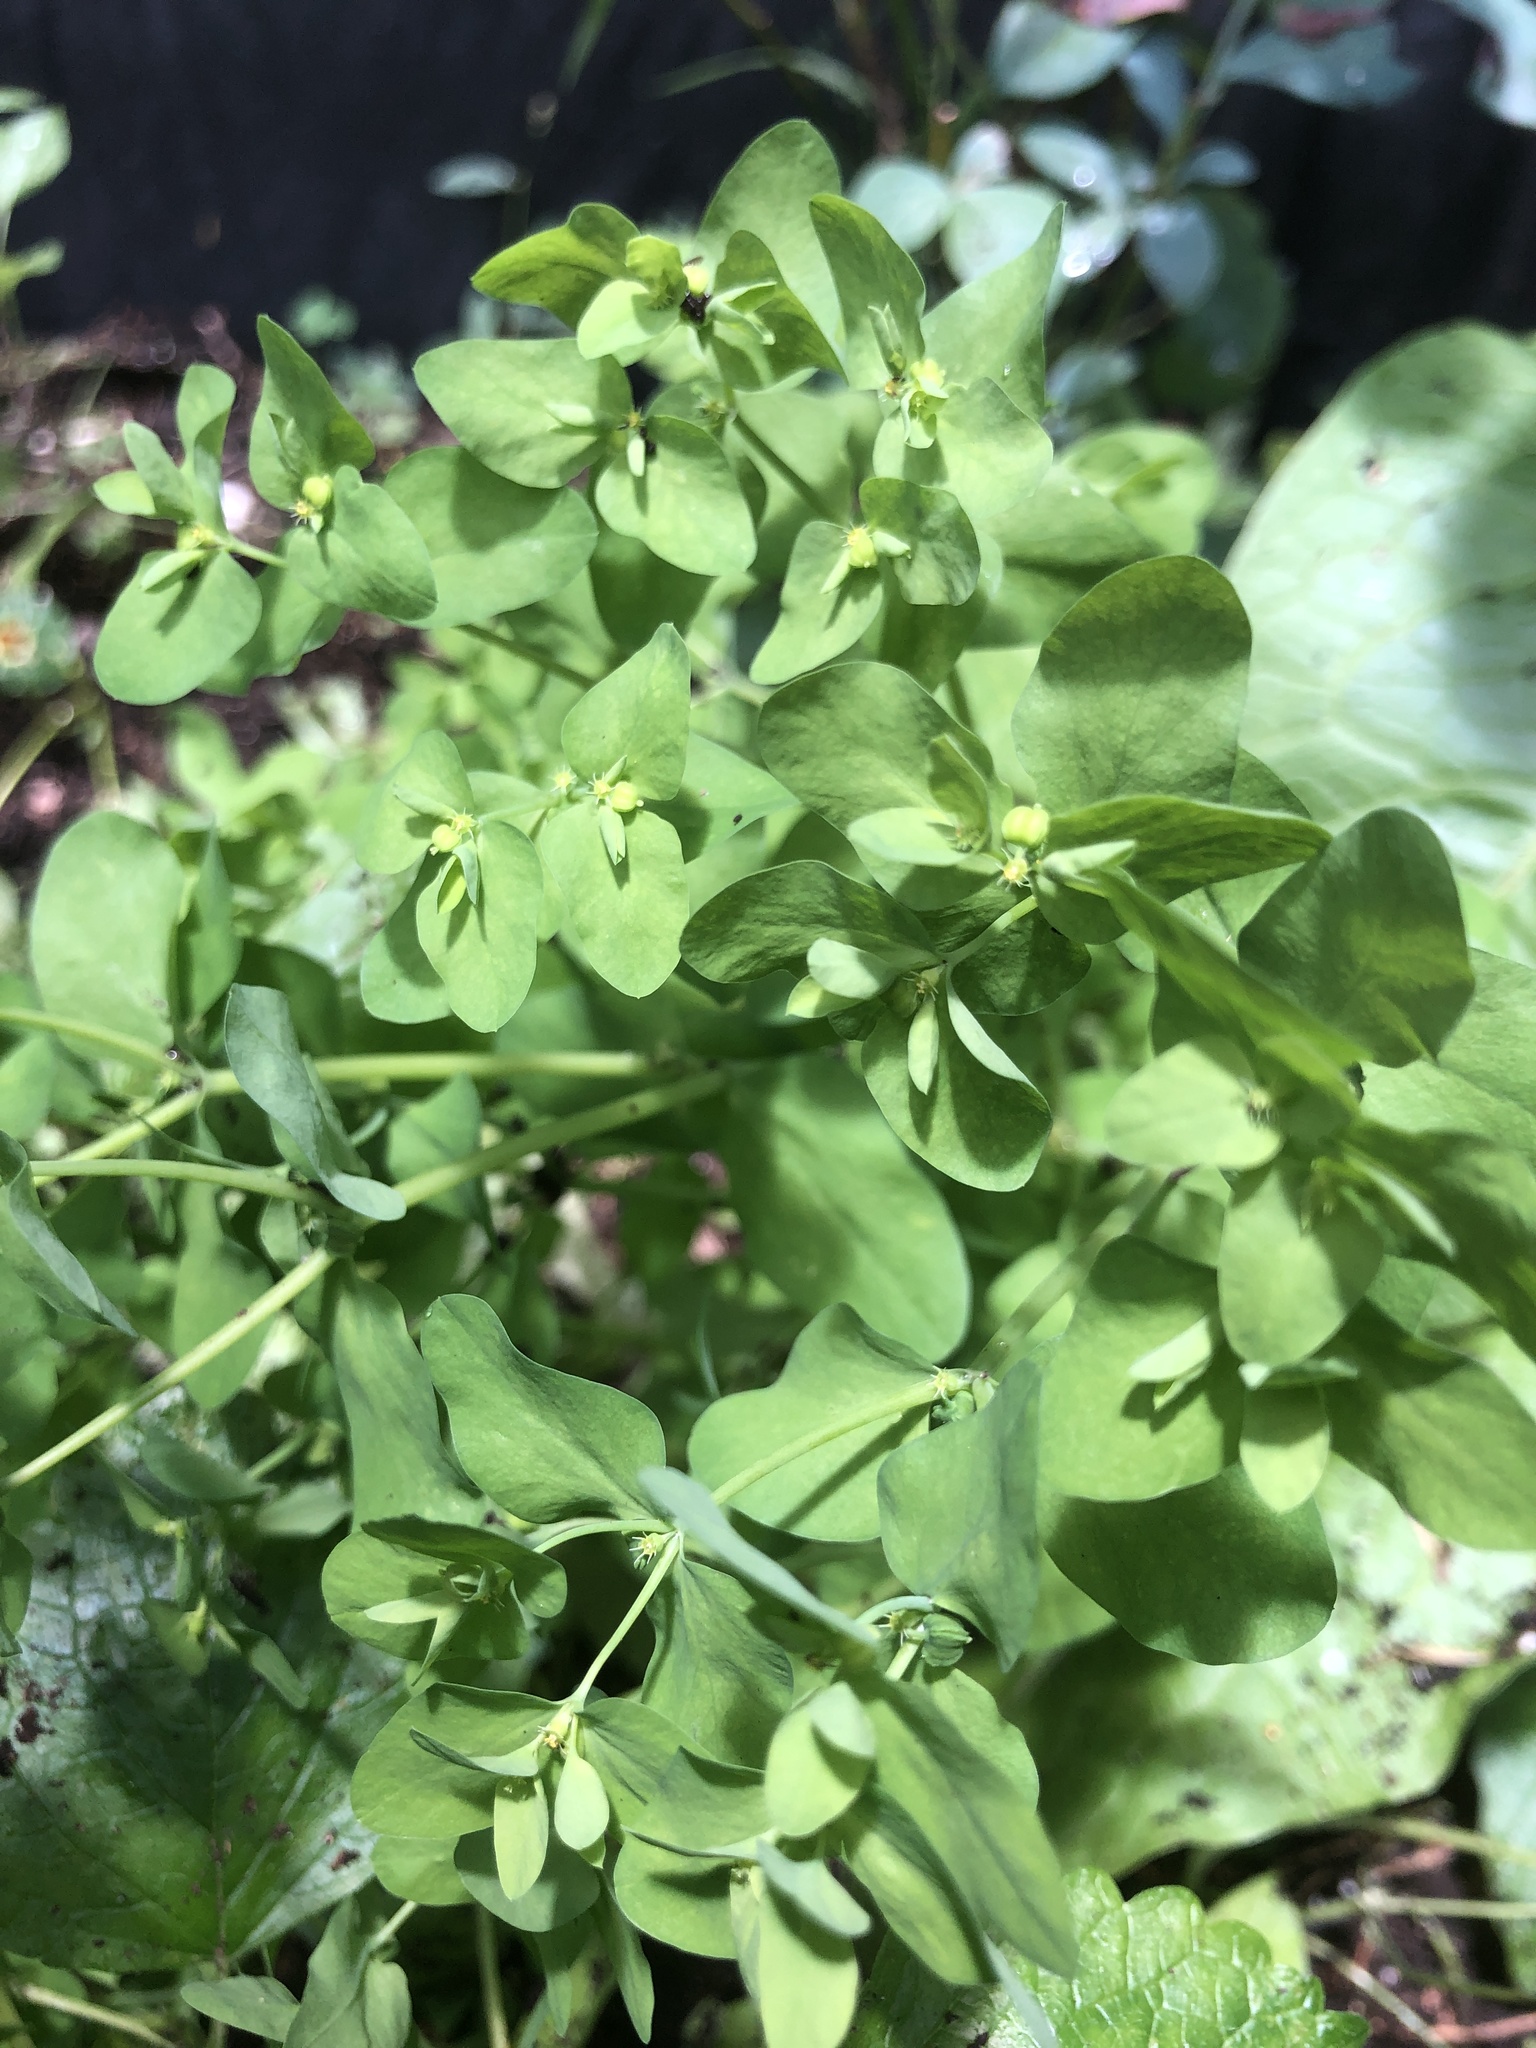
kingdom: Plantae
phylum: Tracheophyta
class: Magnoliopsida
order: Malpighiales
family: Euphorbiaceae
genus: Euphorbia
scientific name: Euphorbia peplus
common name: Petty spurge
